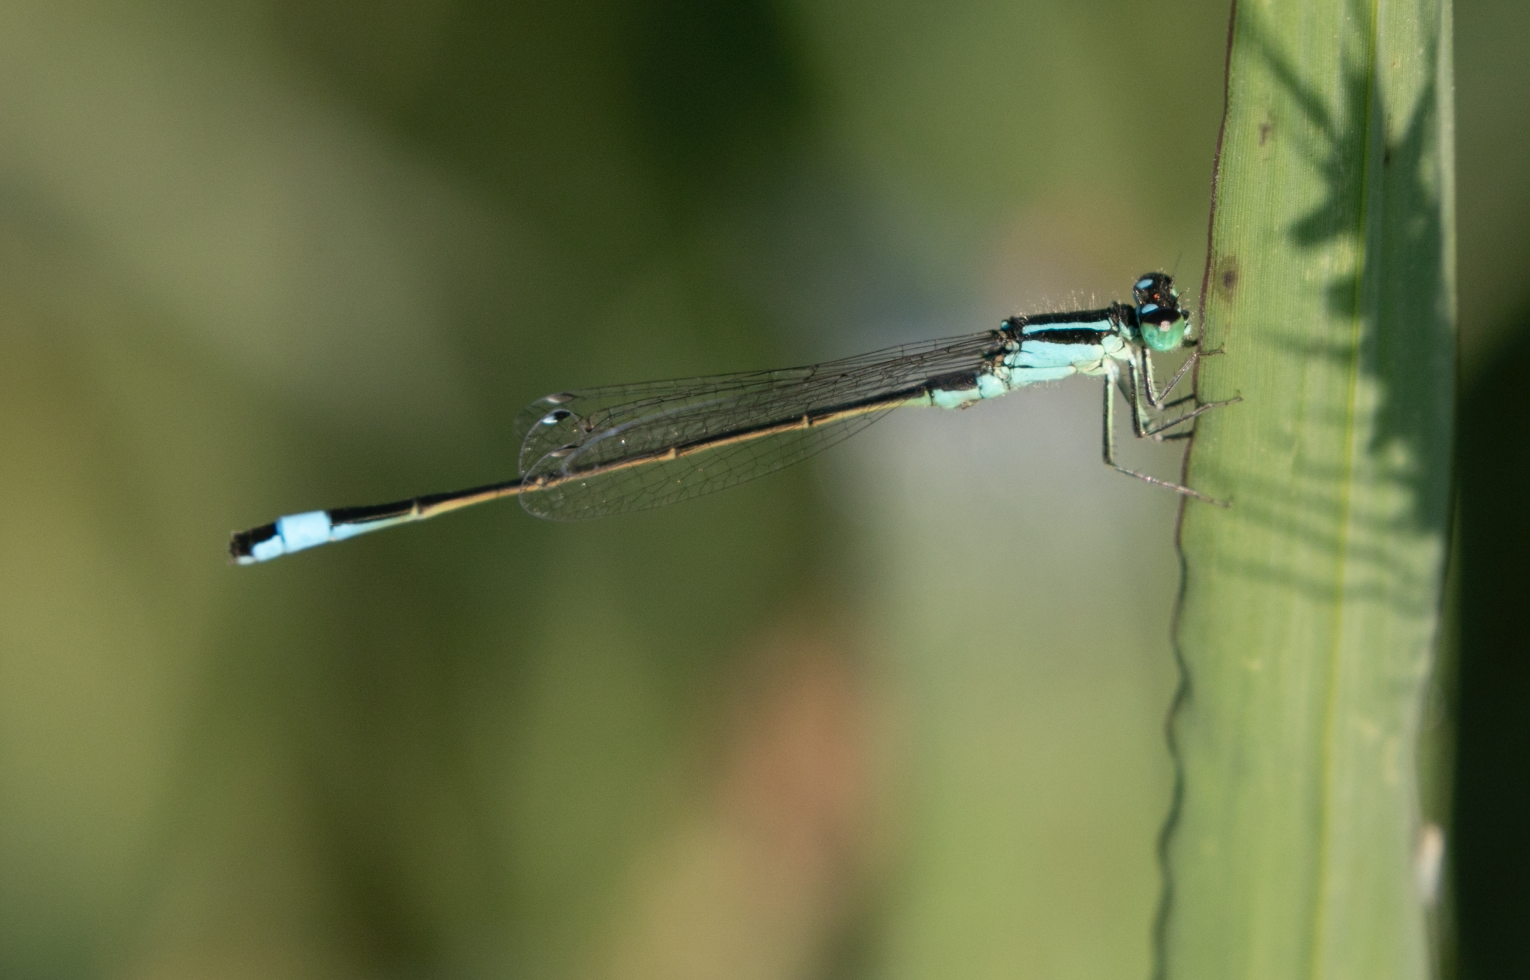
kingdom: Animalia
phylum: Arthropoda
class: Insecta
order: Odonata
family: Coenagrionidae
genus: Ischnura
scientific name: Ischnura elegans
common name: Blue-tailed damselfly
